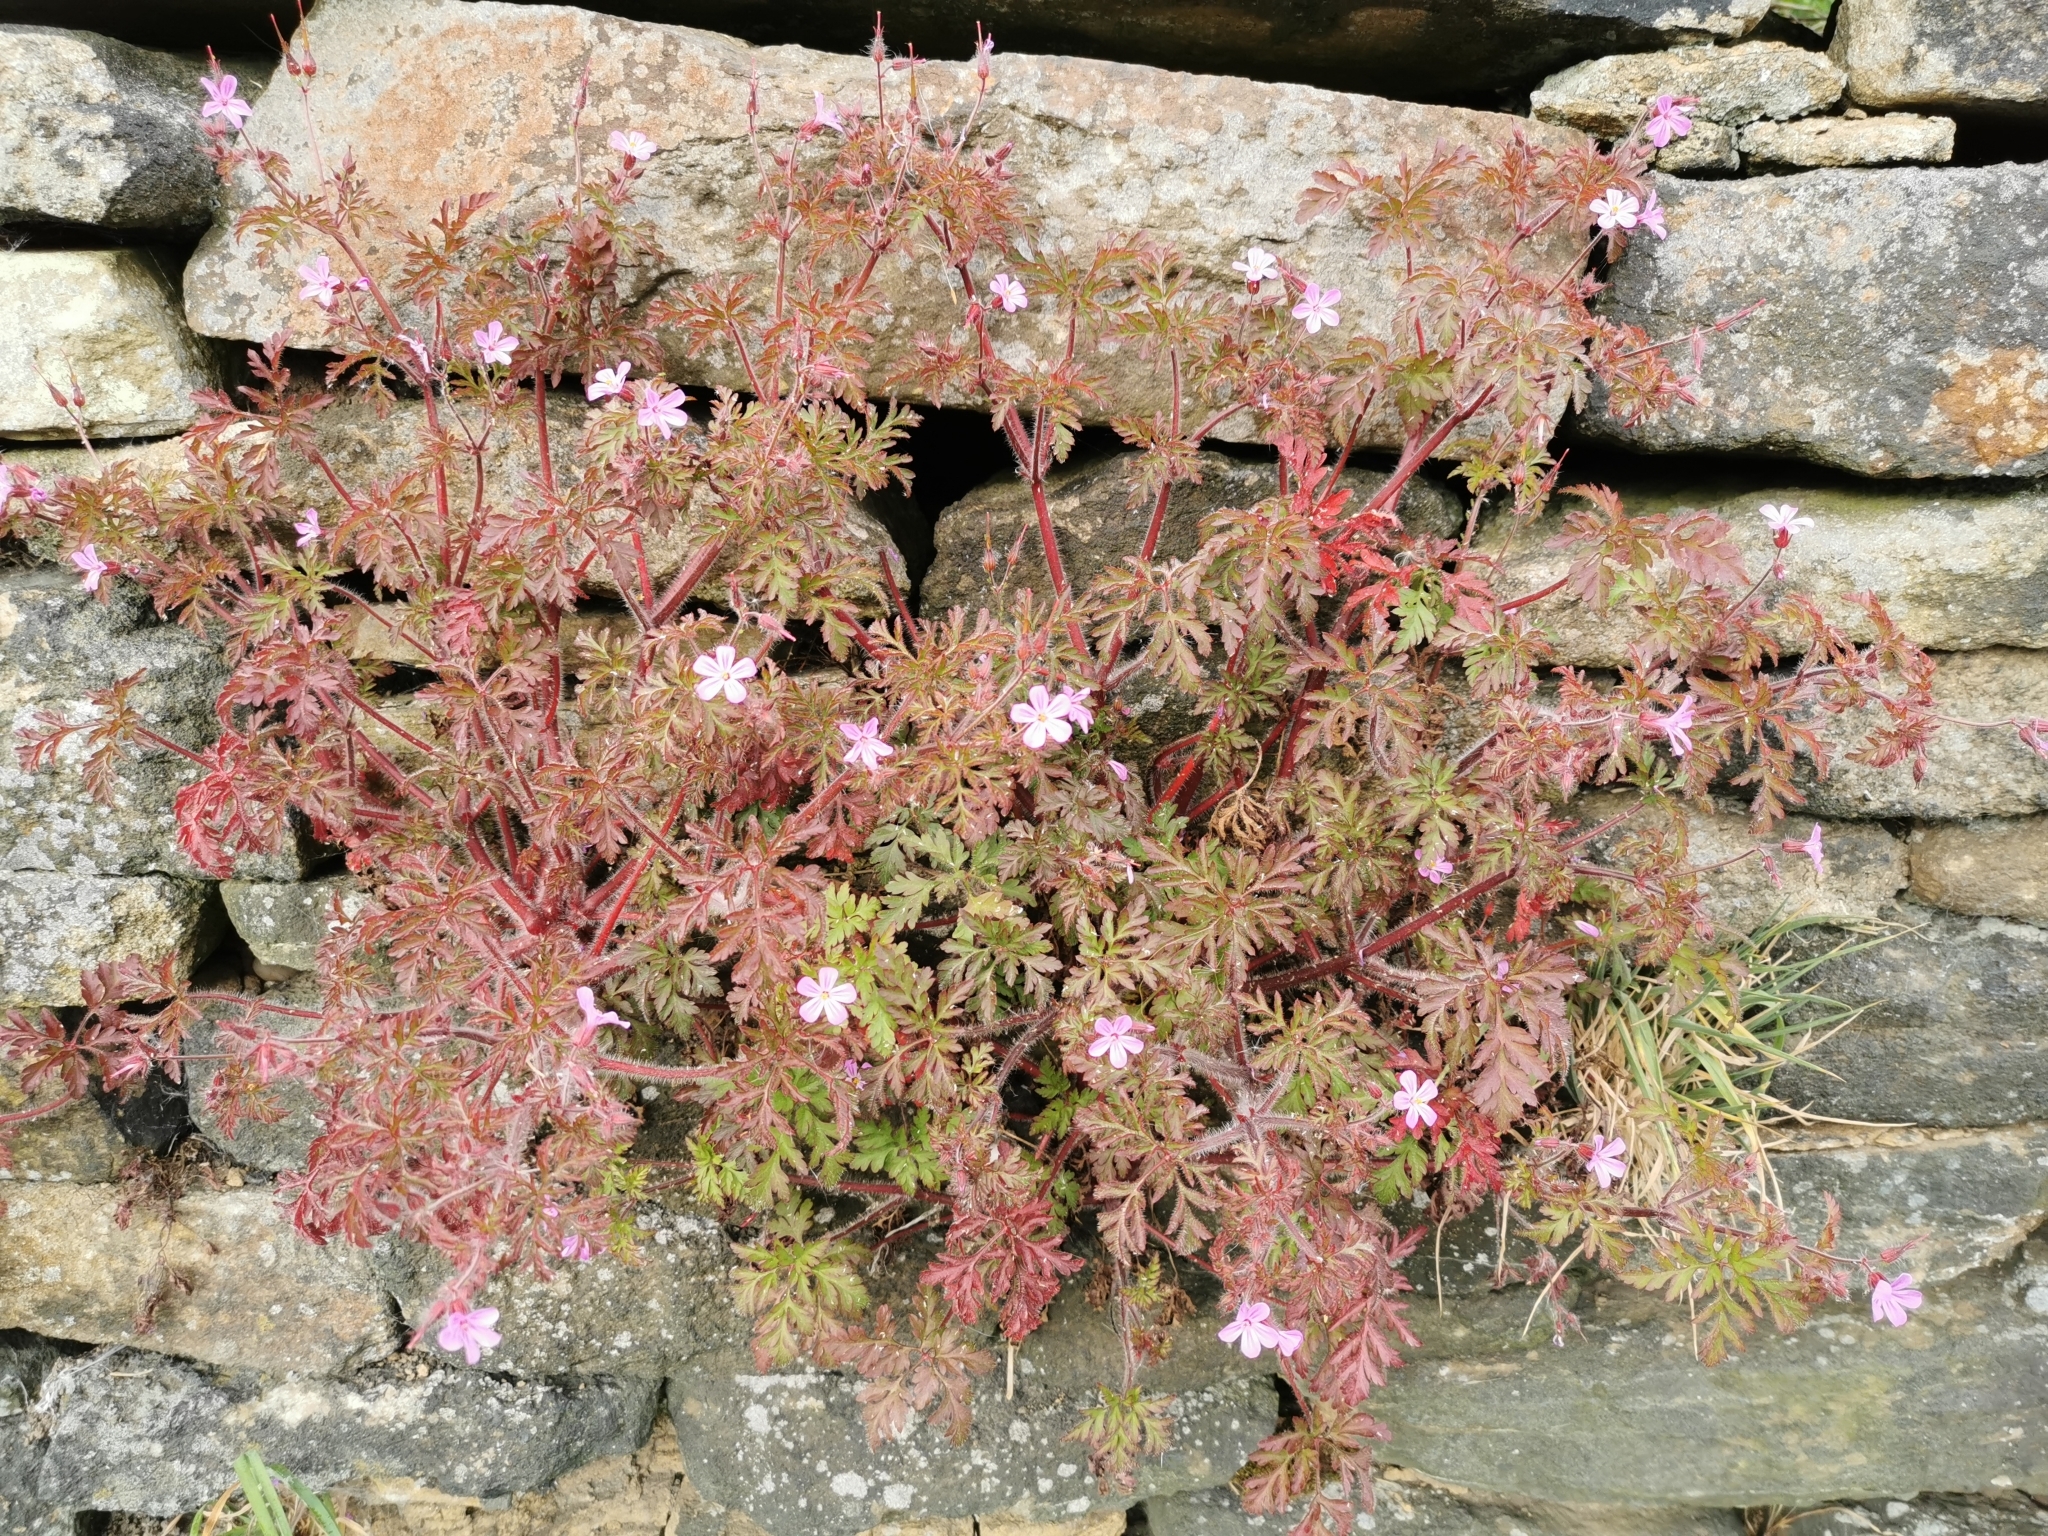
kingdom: Plantae
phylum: Tracheophyta
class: Magnoliopsida
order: Geraniales
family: Geraniaceae
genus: Geranium
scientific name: Geranium robertianum
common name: Herb-robert
